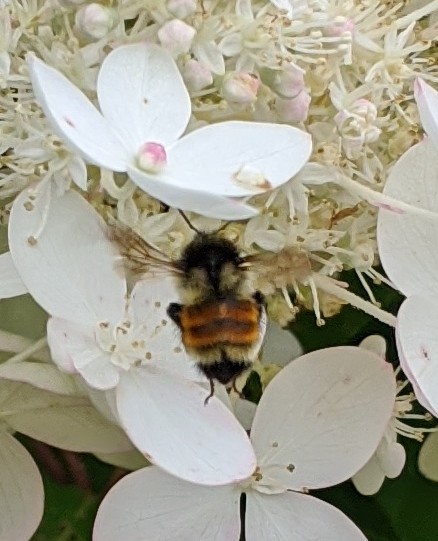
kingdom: Animalia
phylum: Arthropoda
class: Insecta
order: Hymenoptera
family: Apidae
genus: Bombus
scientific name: Bombus ternarius
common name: Tri-colored bumble bee
